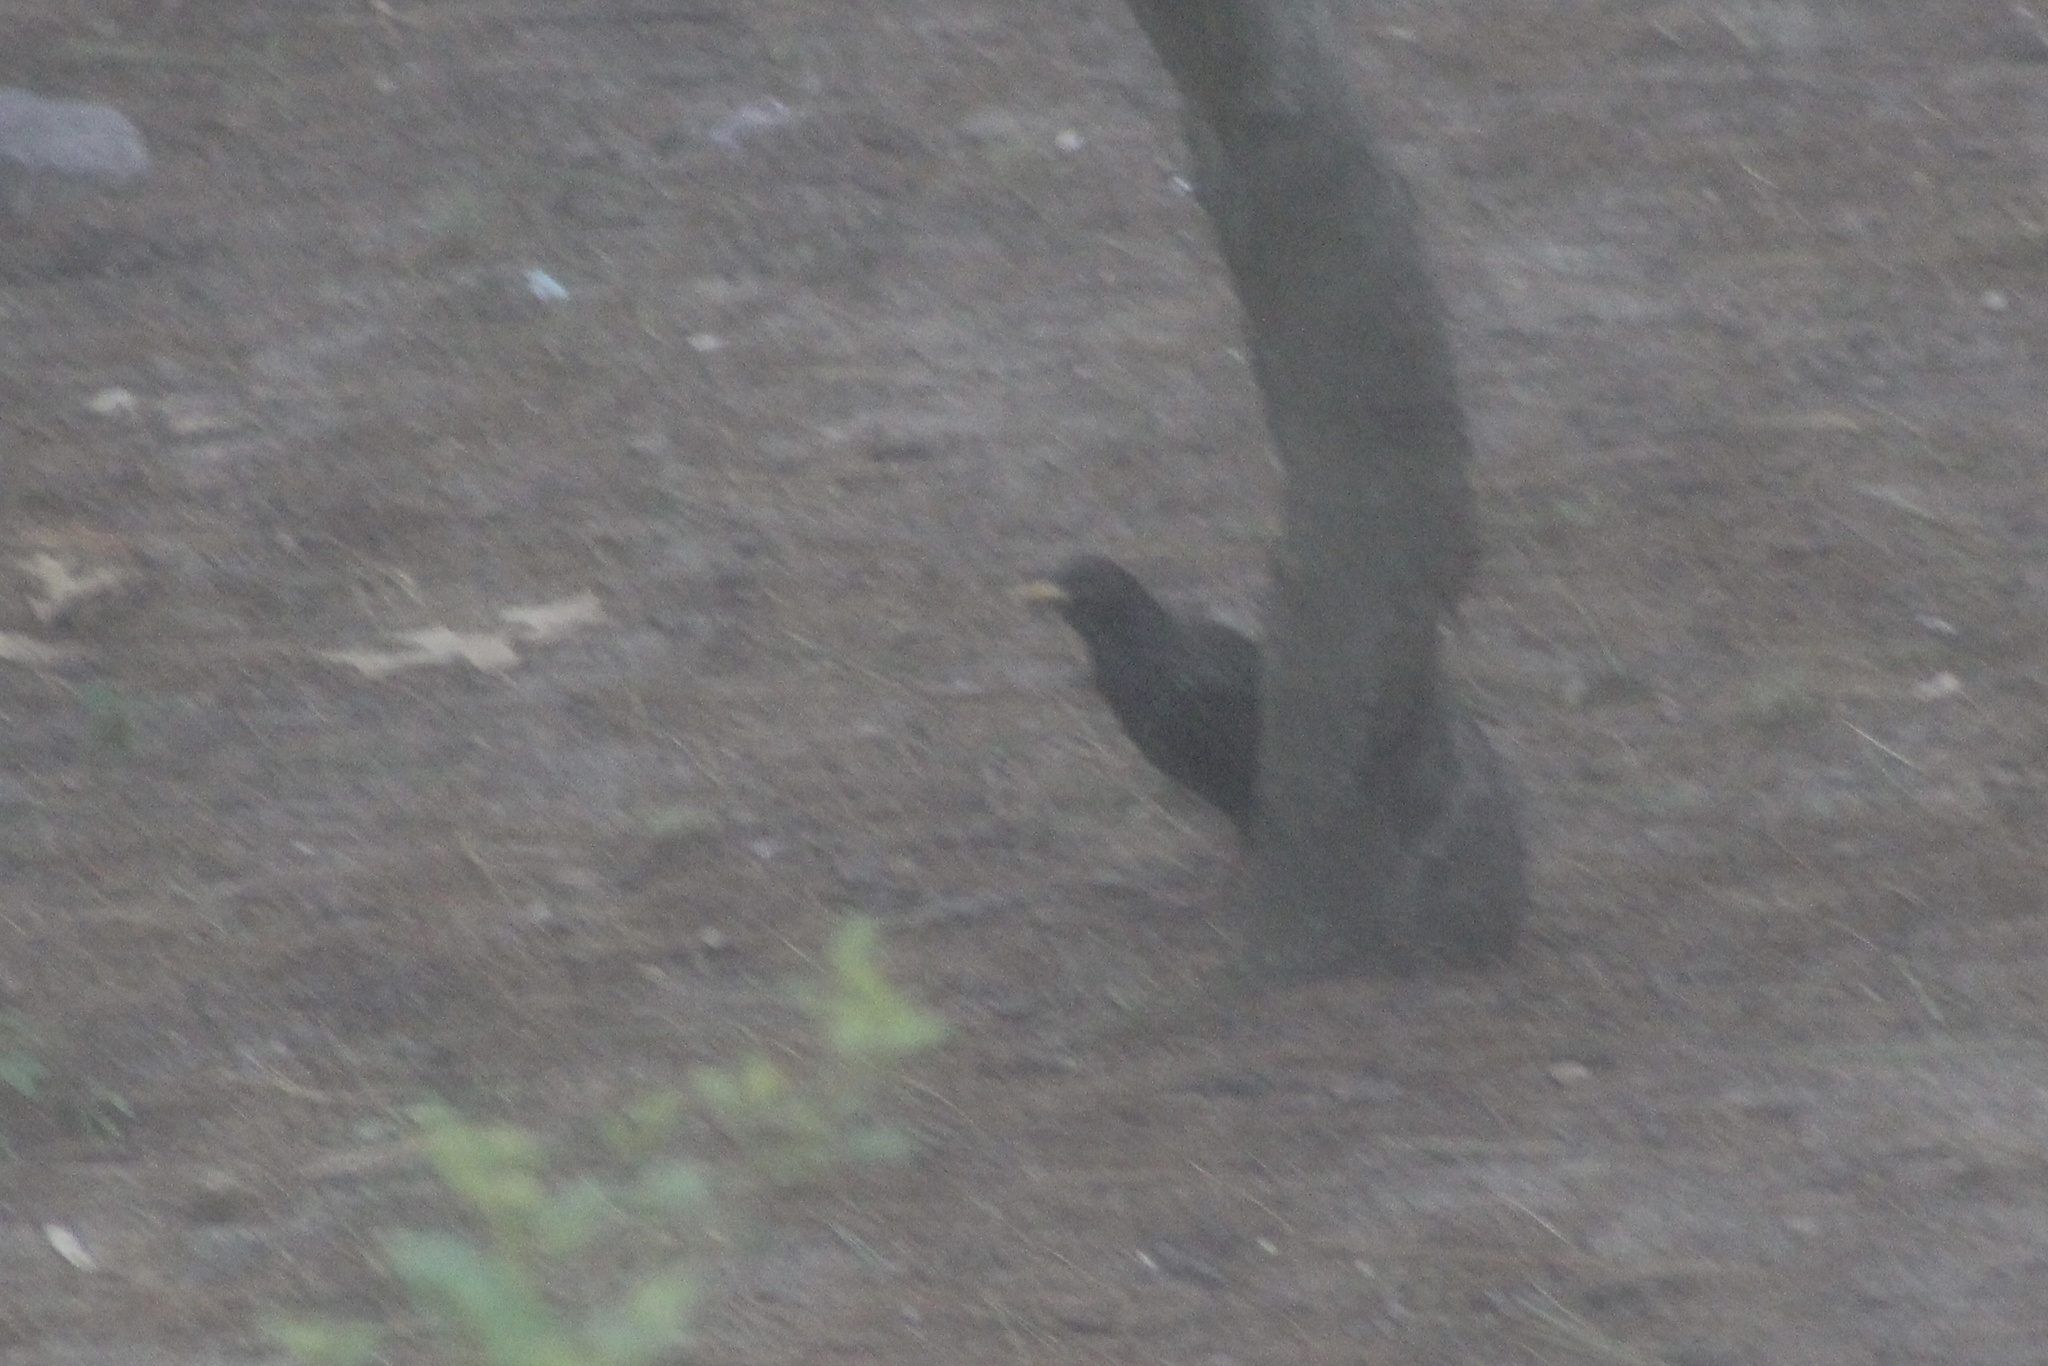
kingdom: Animalia
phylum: Chordata
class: Aves
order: Passeriformes
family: Sturnidae
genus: Sturnus
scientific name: Sturnus vulgaris
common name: Common starling
